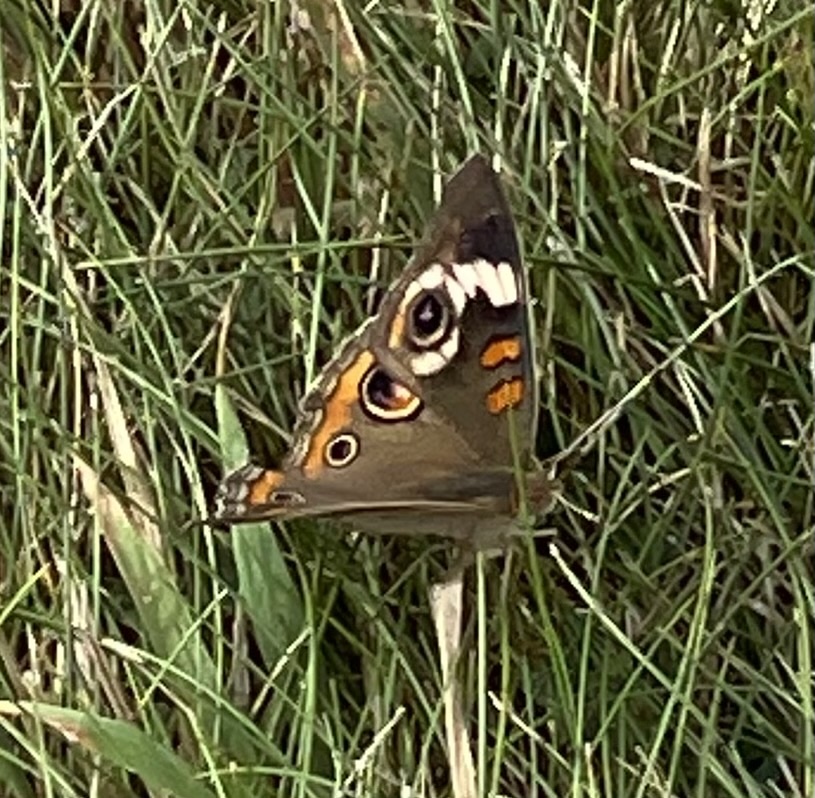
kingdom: Animalia
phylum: Arthropoda
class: Insecta
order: Lepidoptera
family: Nymphalidae
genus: Junonia
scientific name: Junonia coenia
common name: Common buckeye
